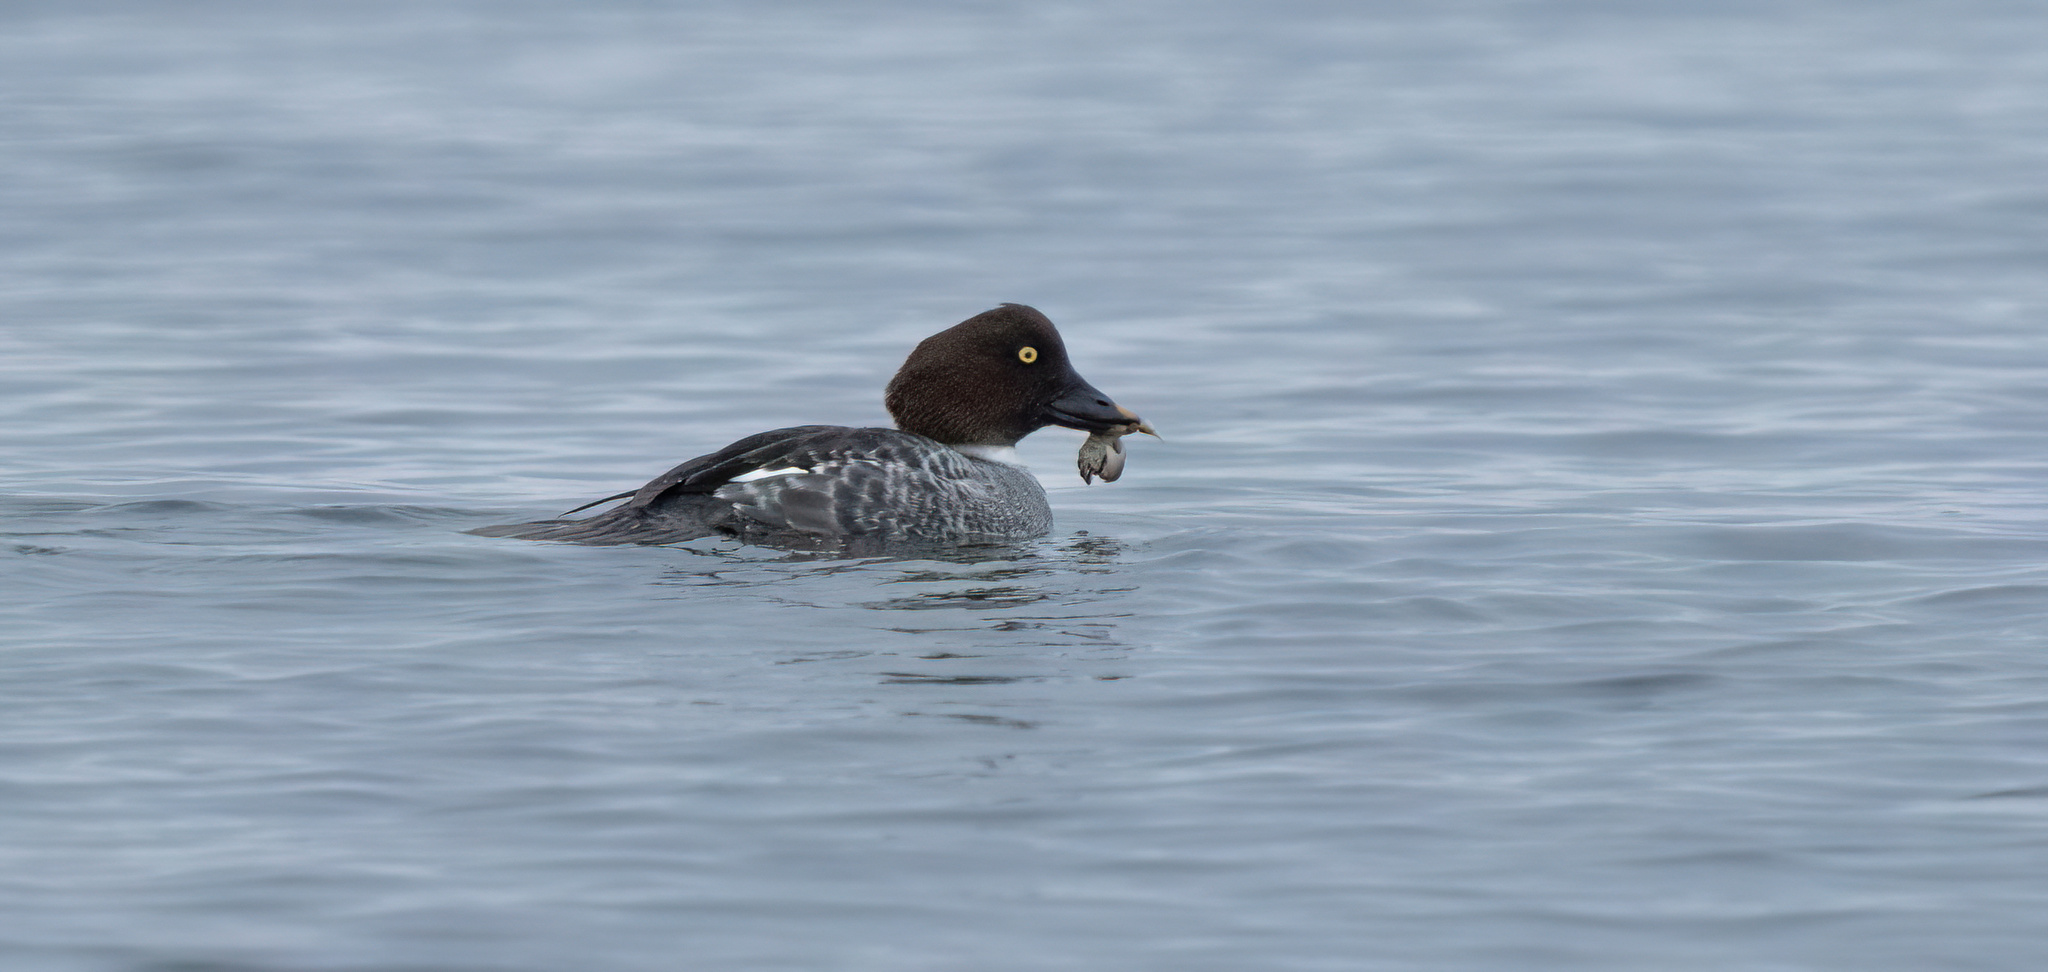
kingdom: Animalia
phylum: Chordata
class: Aves
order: Anseriformes
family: Anatidae
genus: Bucephala
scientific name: Bucephala clangula
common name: Common goldeneye
